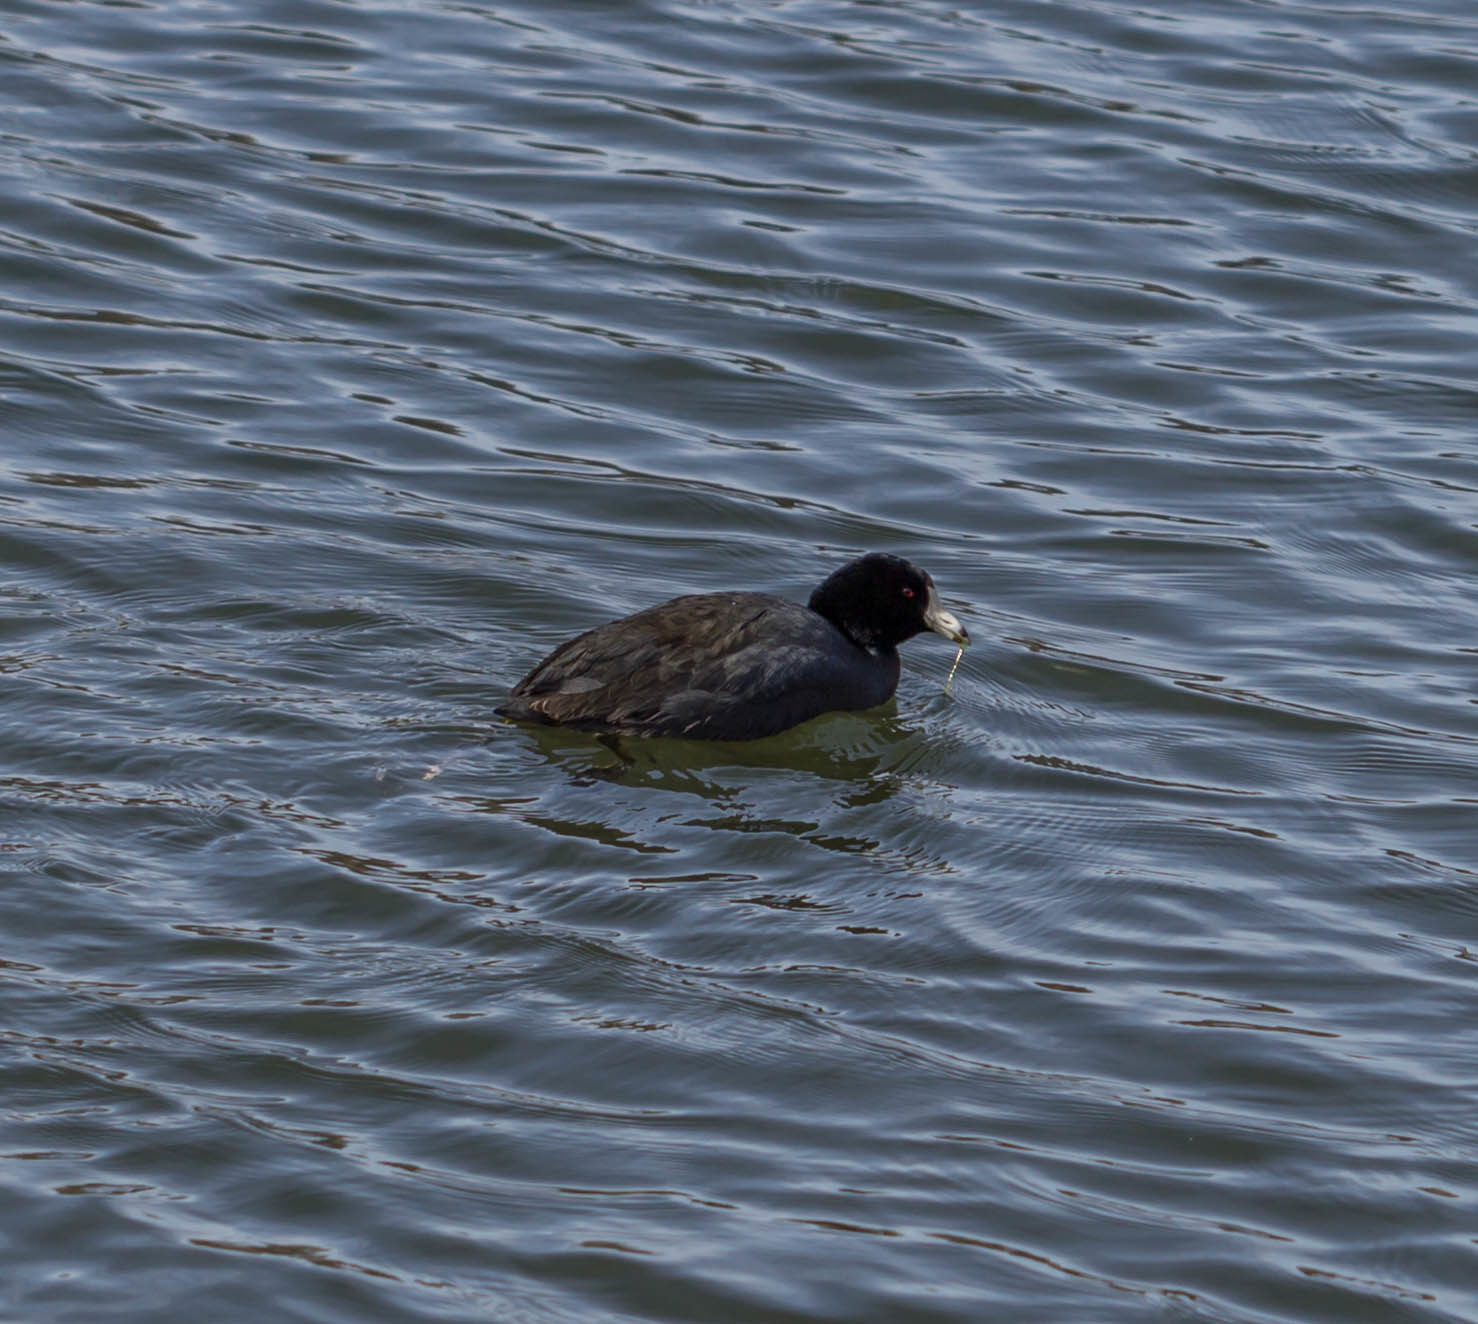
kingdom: Animalia
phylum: Chordata
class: Aves
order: Gruiformes
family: Rallidae
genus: Fulica
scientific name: Fulica americana
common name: American coot
